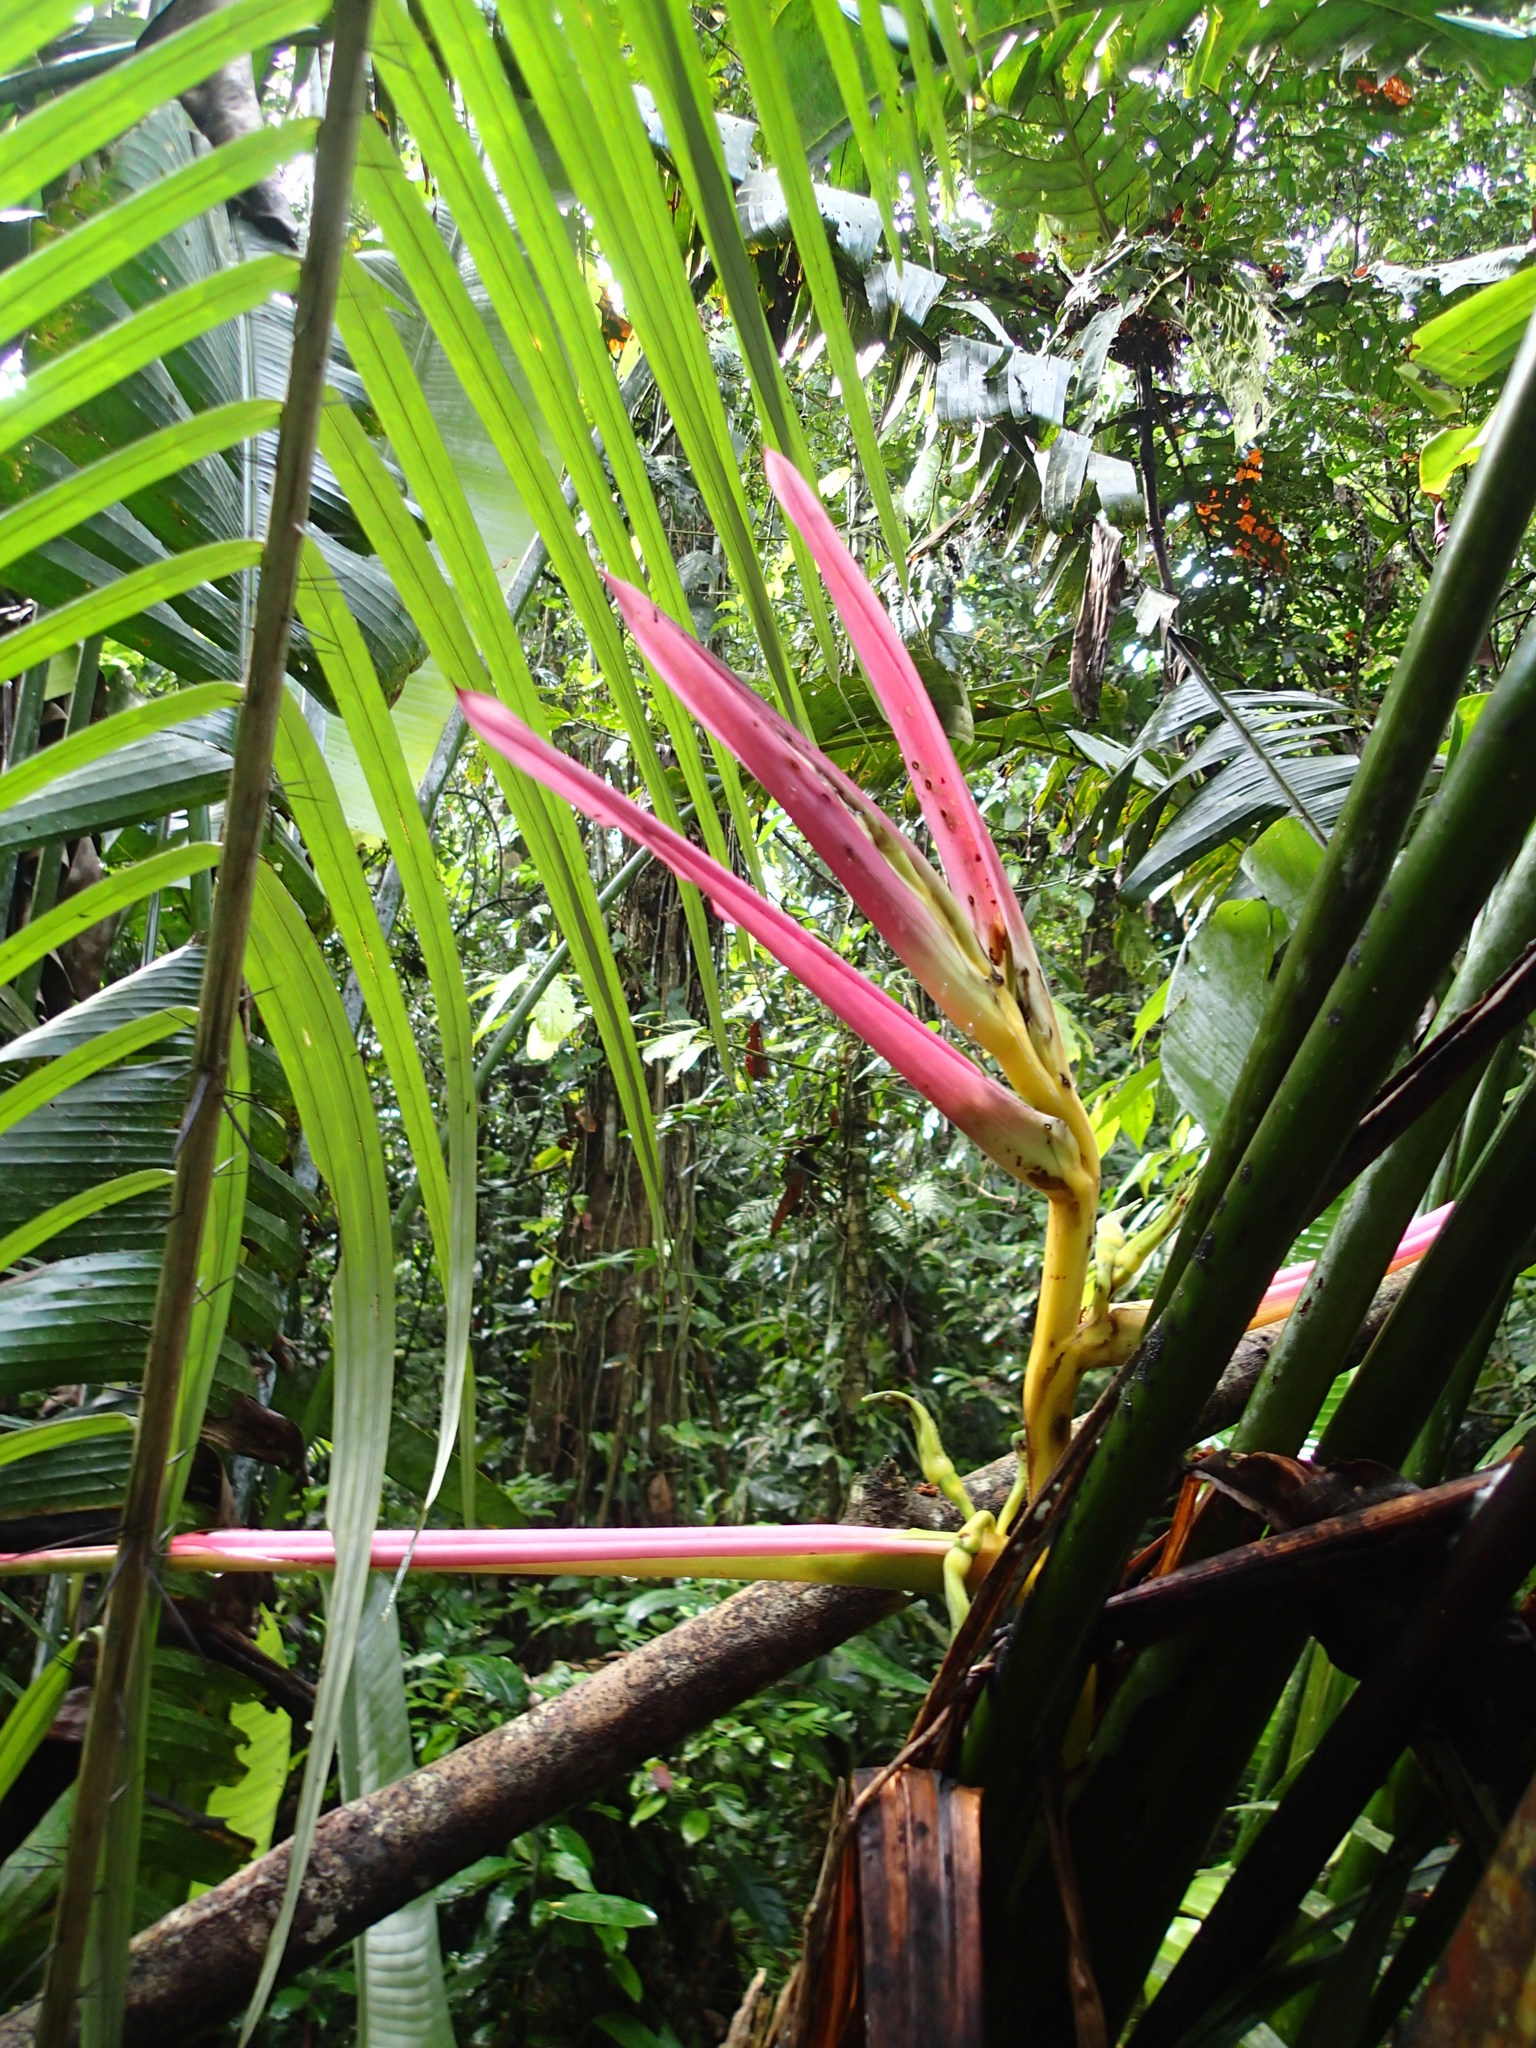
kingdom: Plantae
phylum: Tracheophyta
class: Liliopsida
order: Zingiberales
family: Heliconiaceae
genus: Heliconia
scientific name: Heliconia aemygdiana
